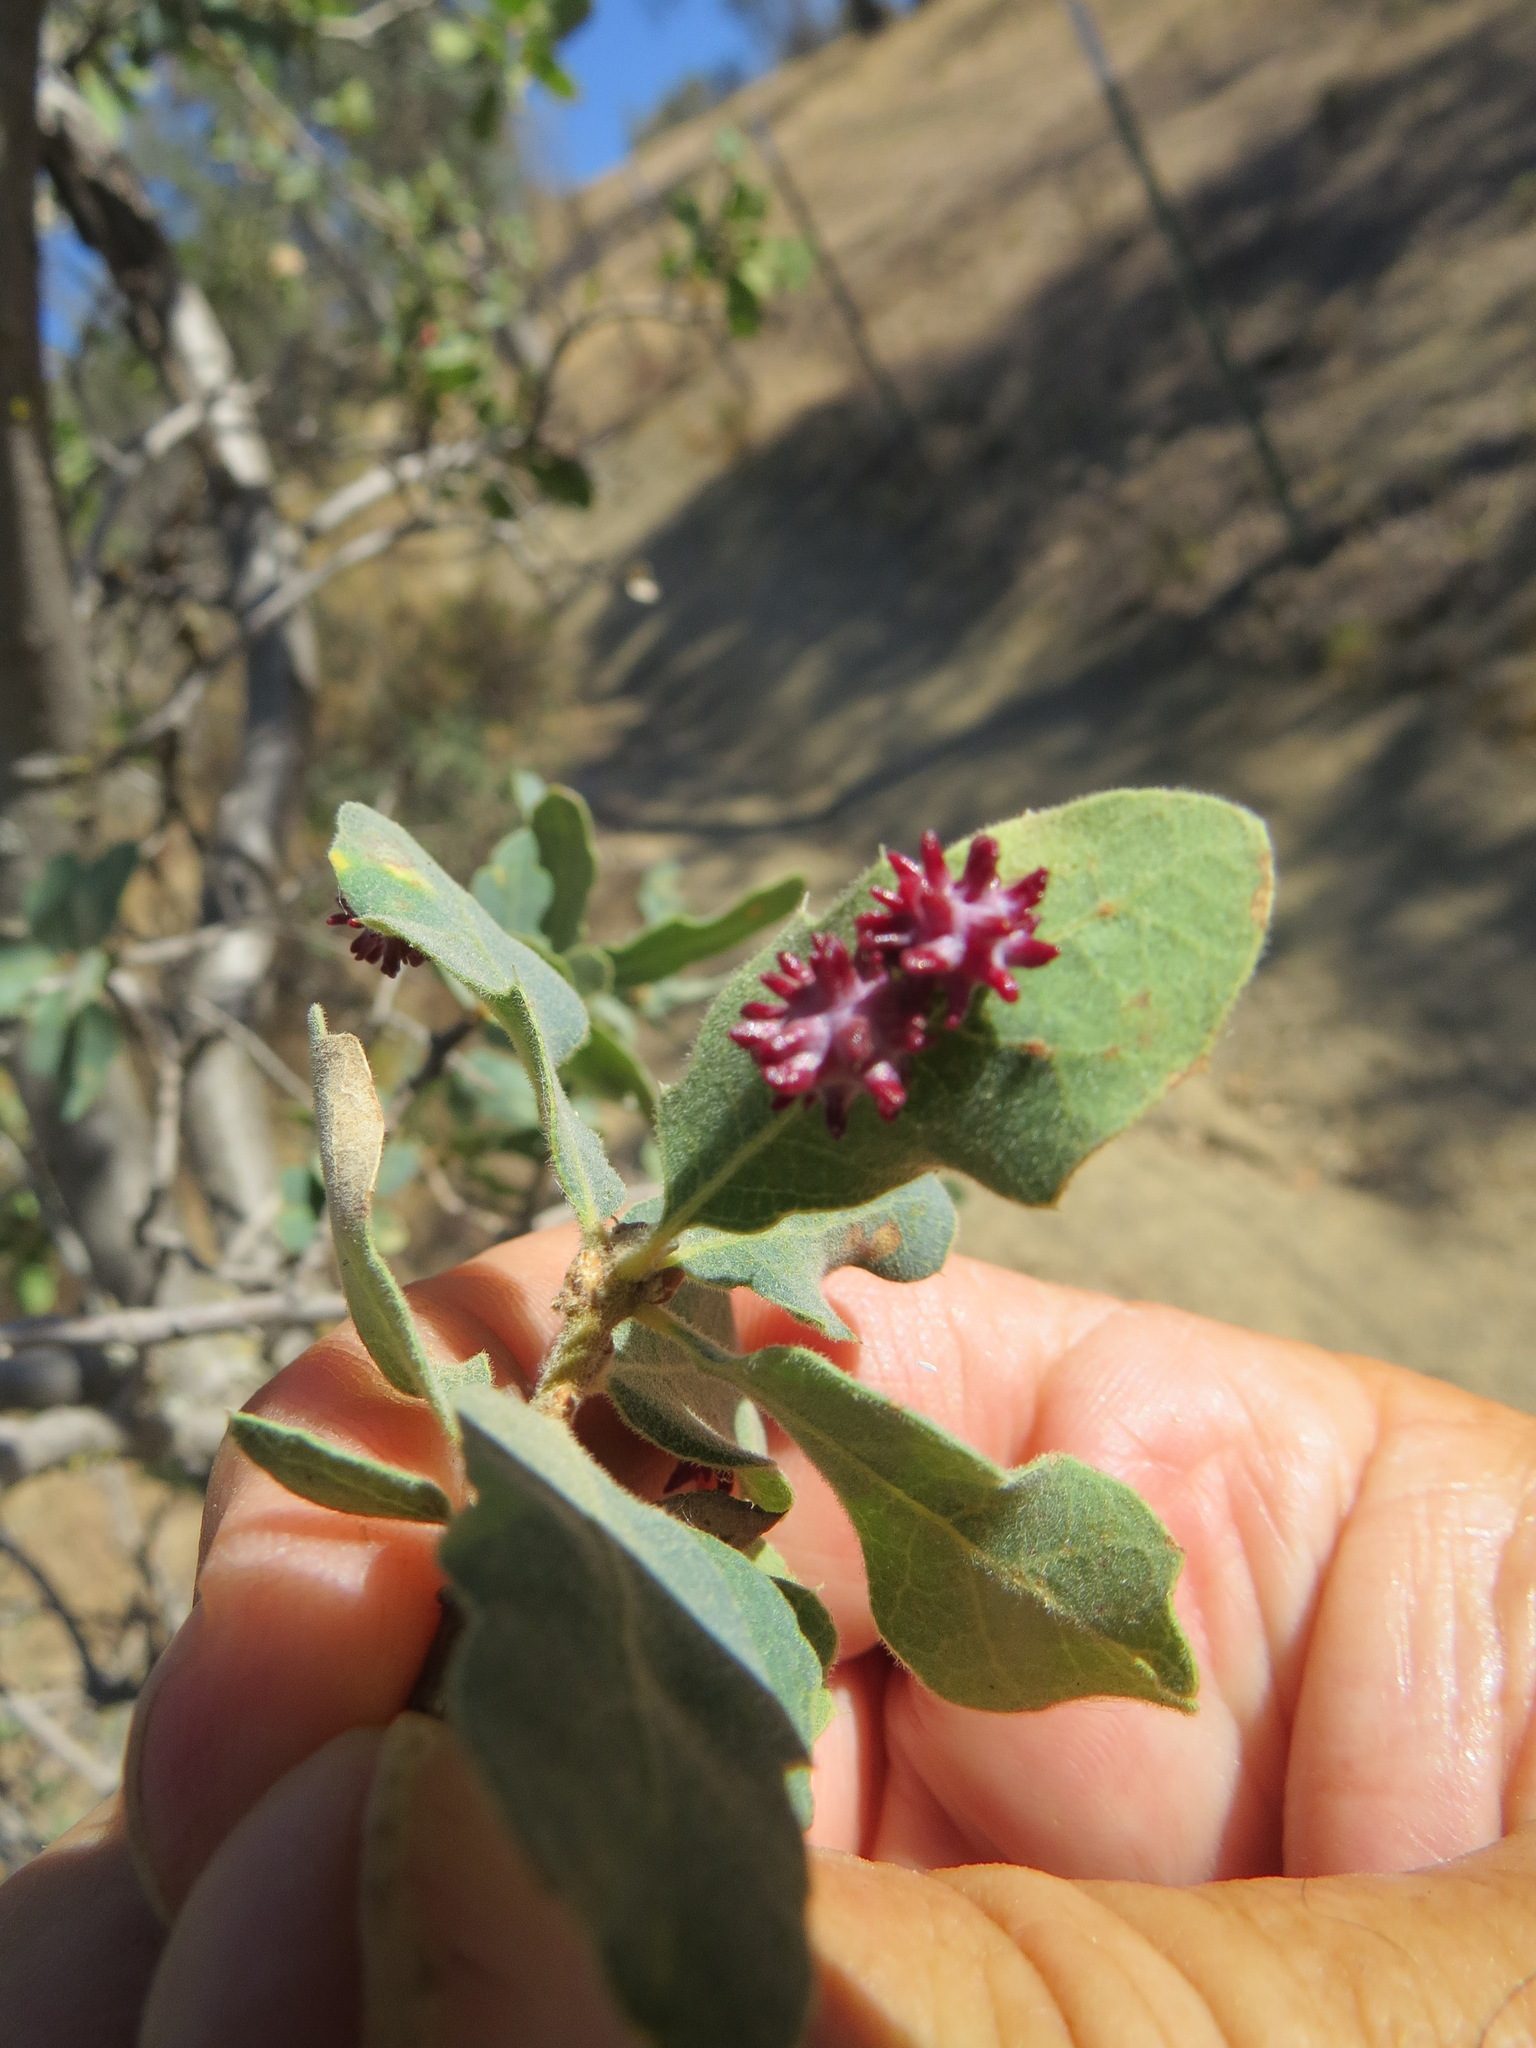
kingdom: Animalia
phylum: Arthropoda
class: Insecta
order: Hymenoptera
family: Cynipidae
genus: Cynips
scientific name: Cynips
